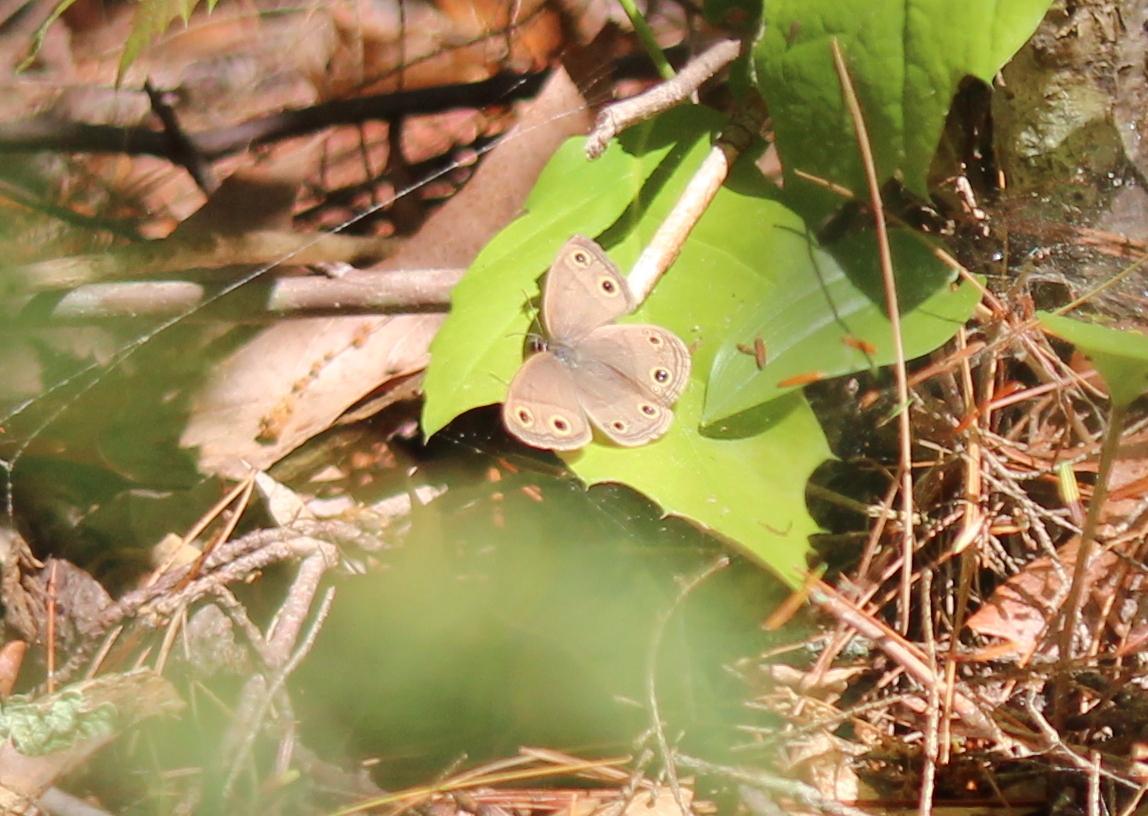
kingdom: Animalia
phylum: Arthropoda
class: Insecta
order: Lepidoptera
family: Nymphalidae
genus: Euptychia
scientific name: Euptychia cymela
